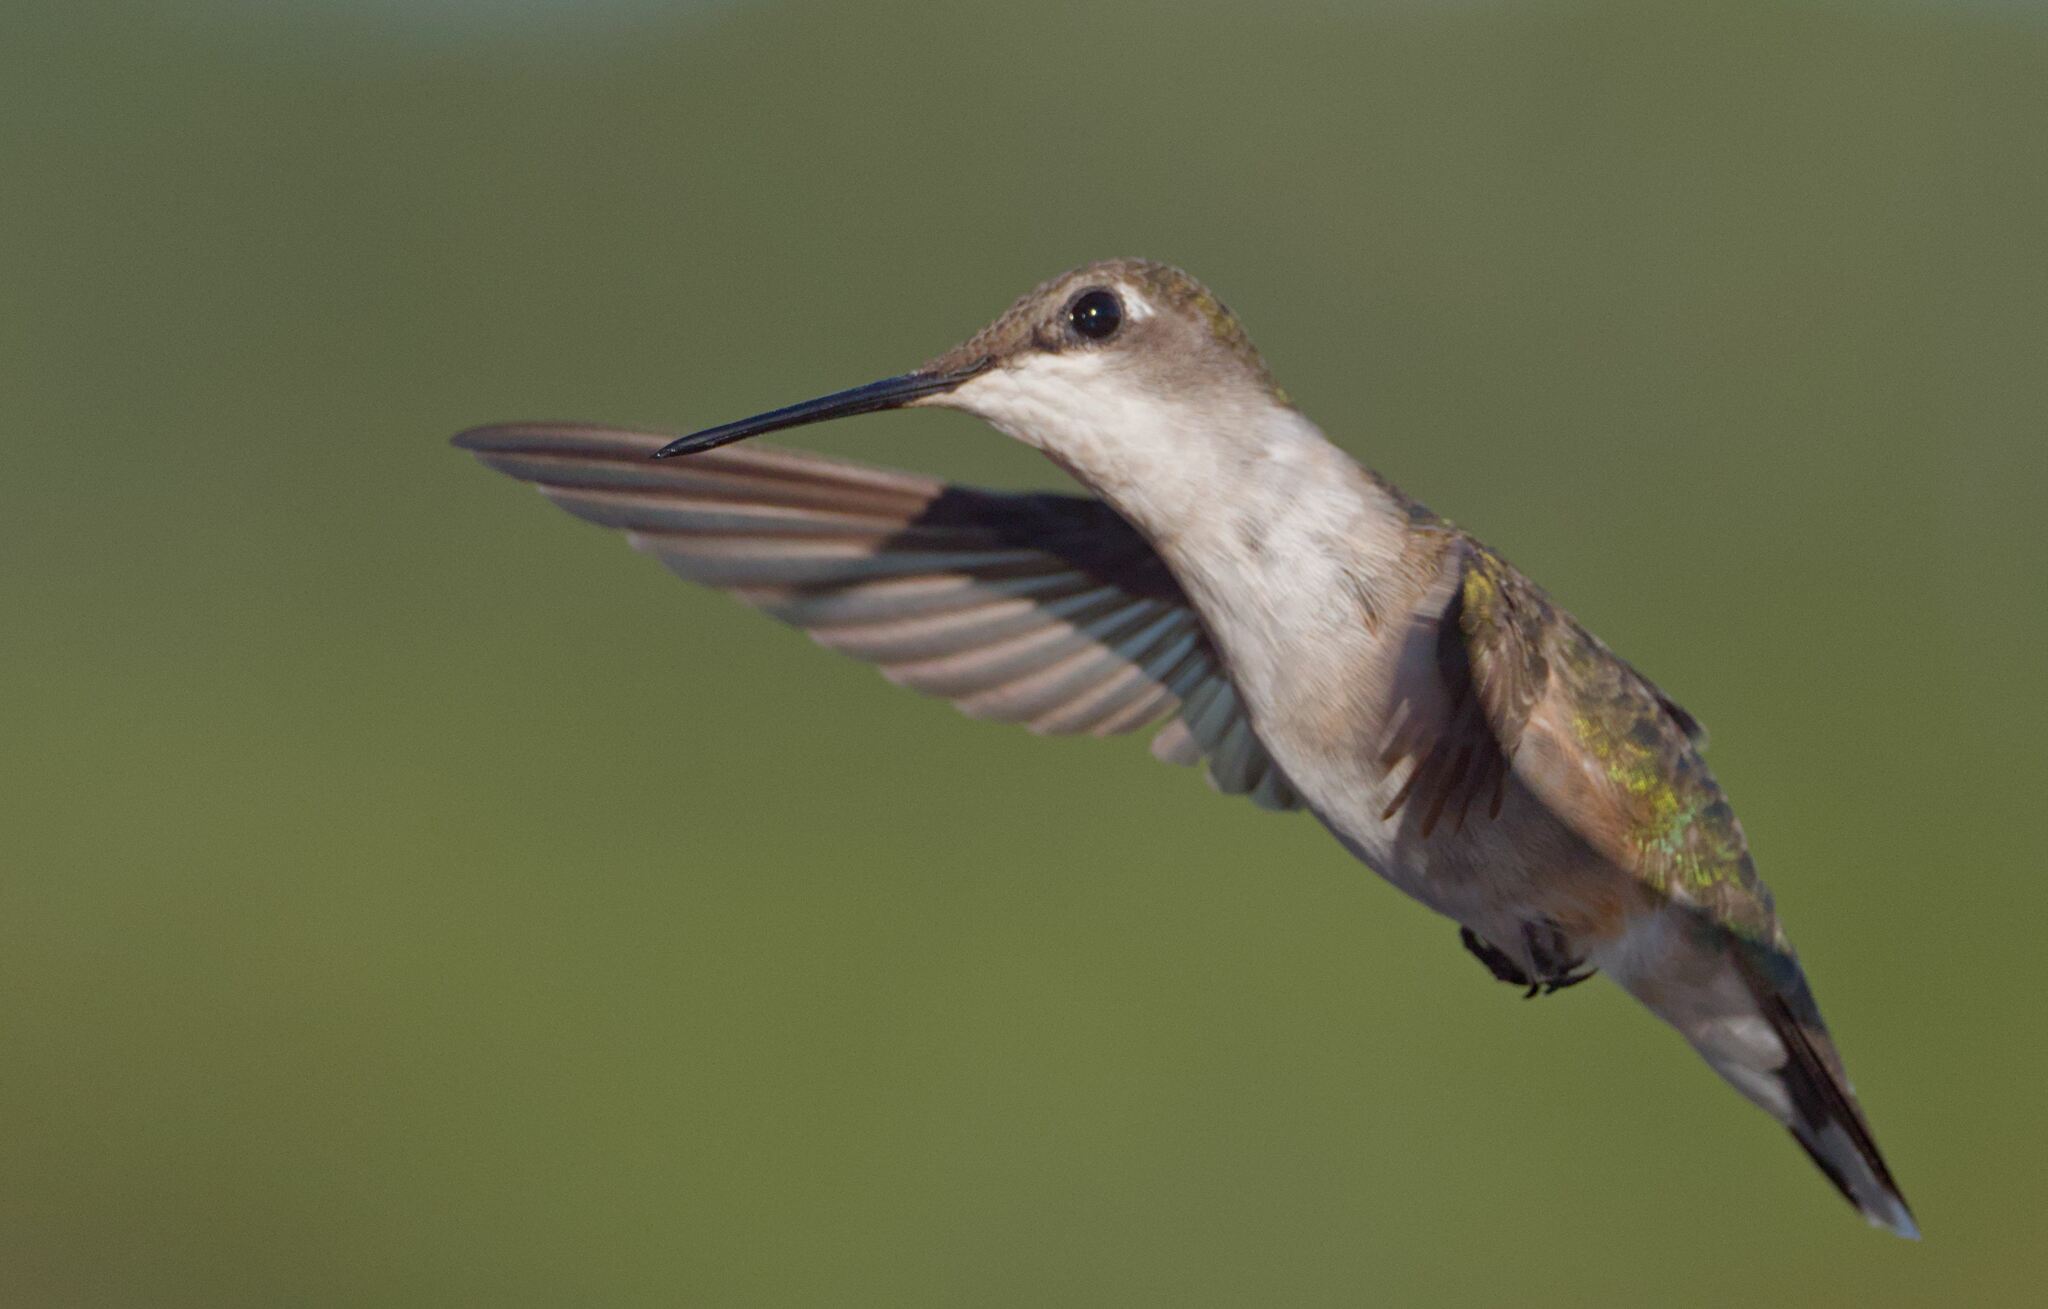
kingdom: Animalia
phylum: Chordata
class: Aves
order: Apodiformes
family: Trochilidae
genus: Archilochus
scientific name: Archilochus colubris
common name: Ruby-throated hummingbird
